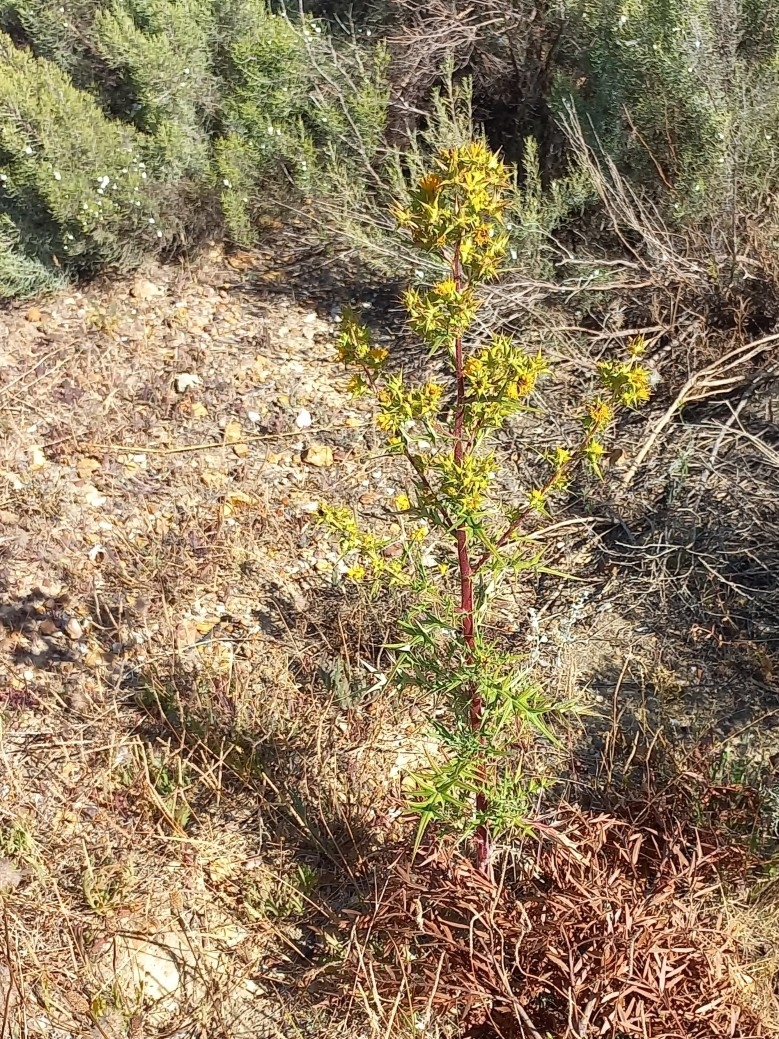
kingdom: Plantae
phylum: Tracheophyta
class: Magnoliopsida
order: Asterales
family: Asteraceae
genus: Berkheya
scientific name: Berkheya rigida
